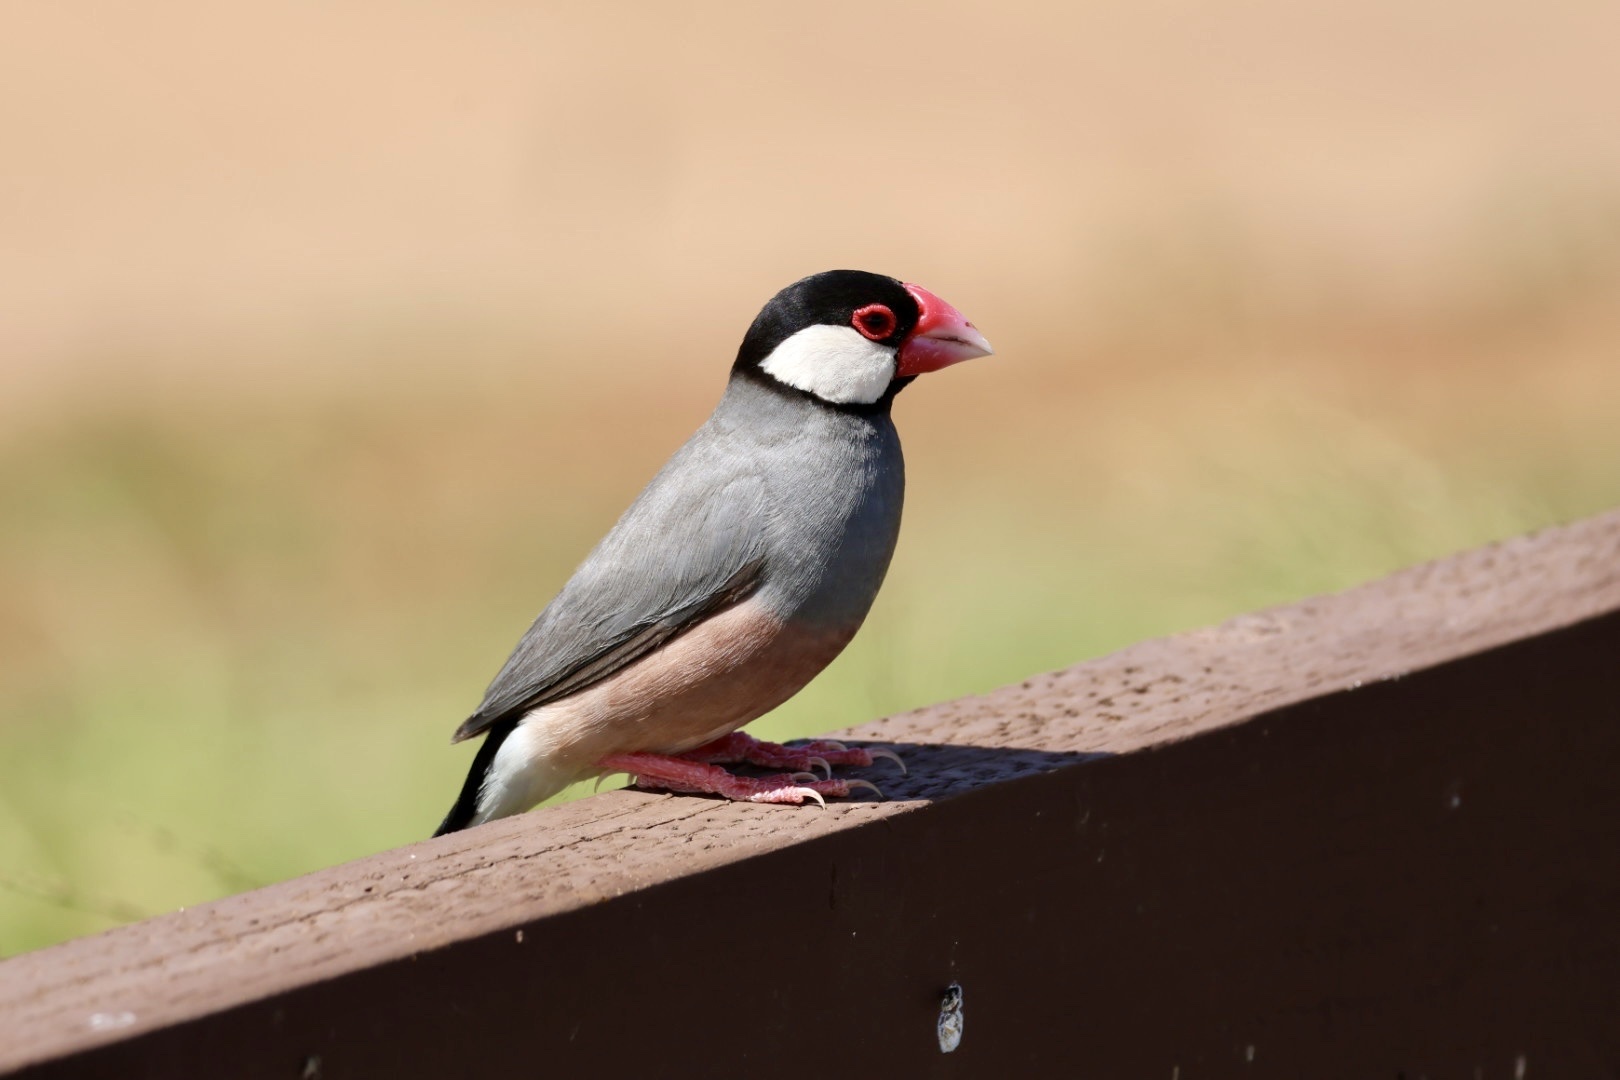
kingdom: Animalia
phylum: Chordata
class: Aves
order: Passeriformes
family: Estrildidae
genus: Lonchura
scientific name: Lonchura oryzivora
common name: Java sparrow
